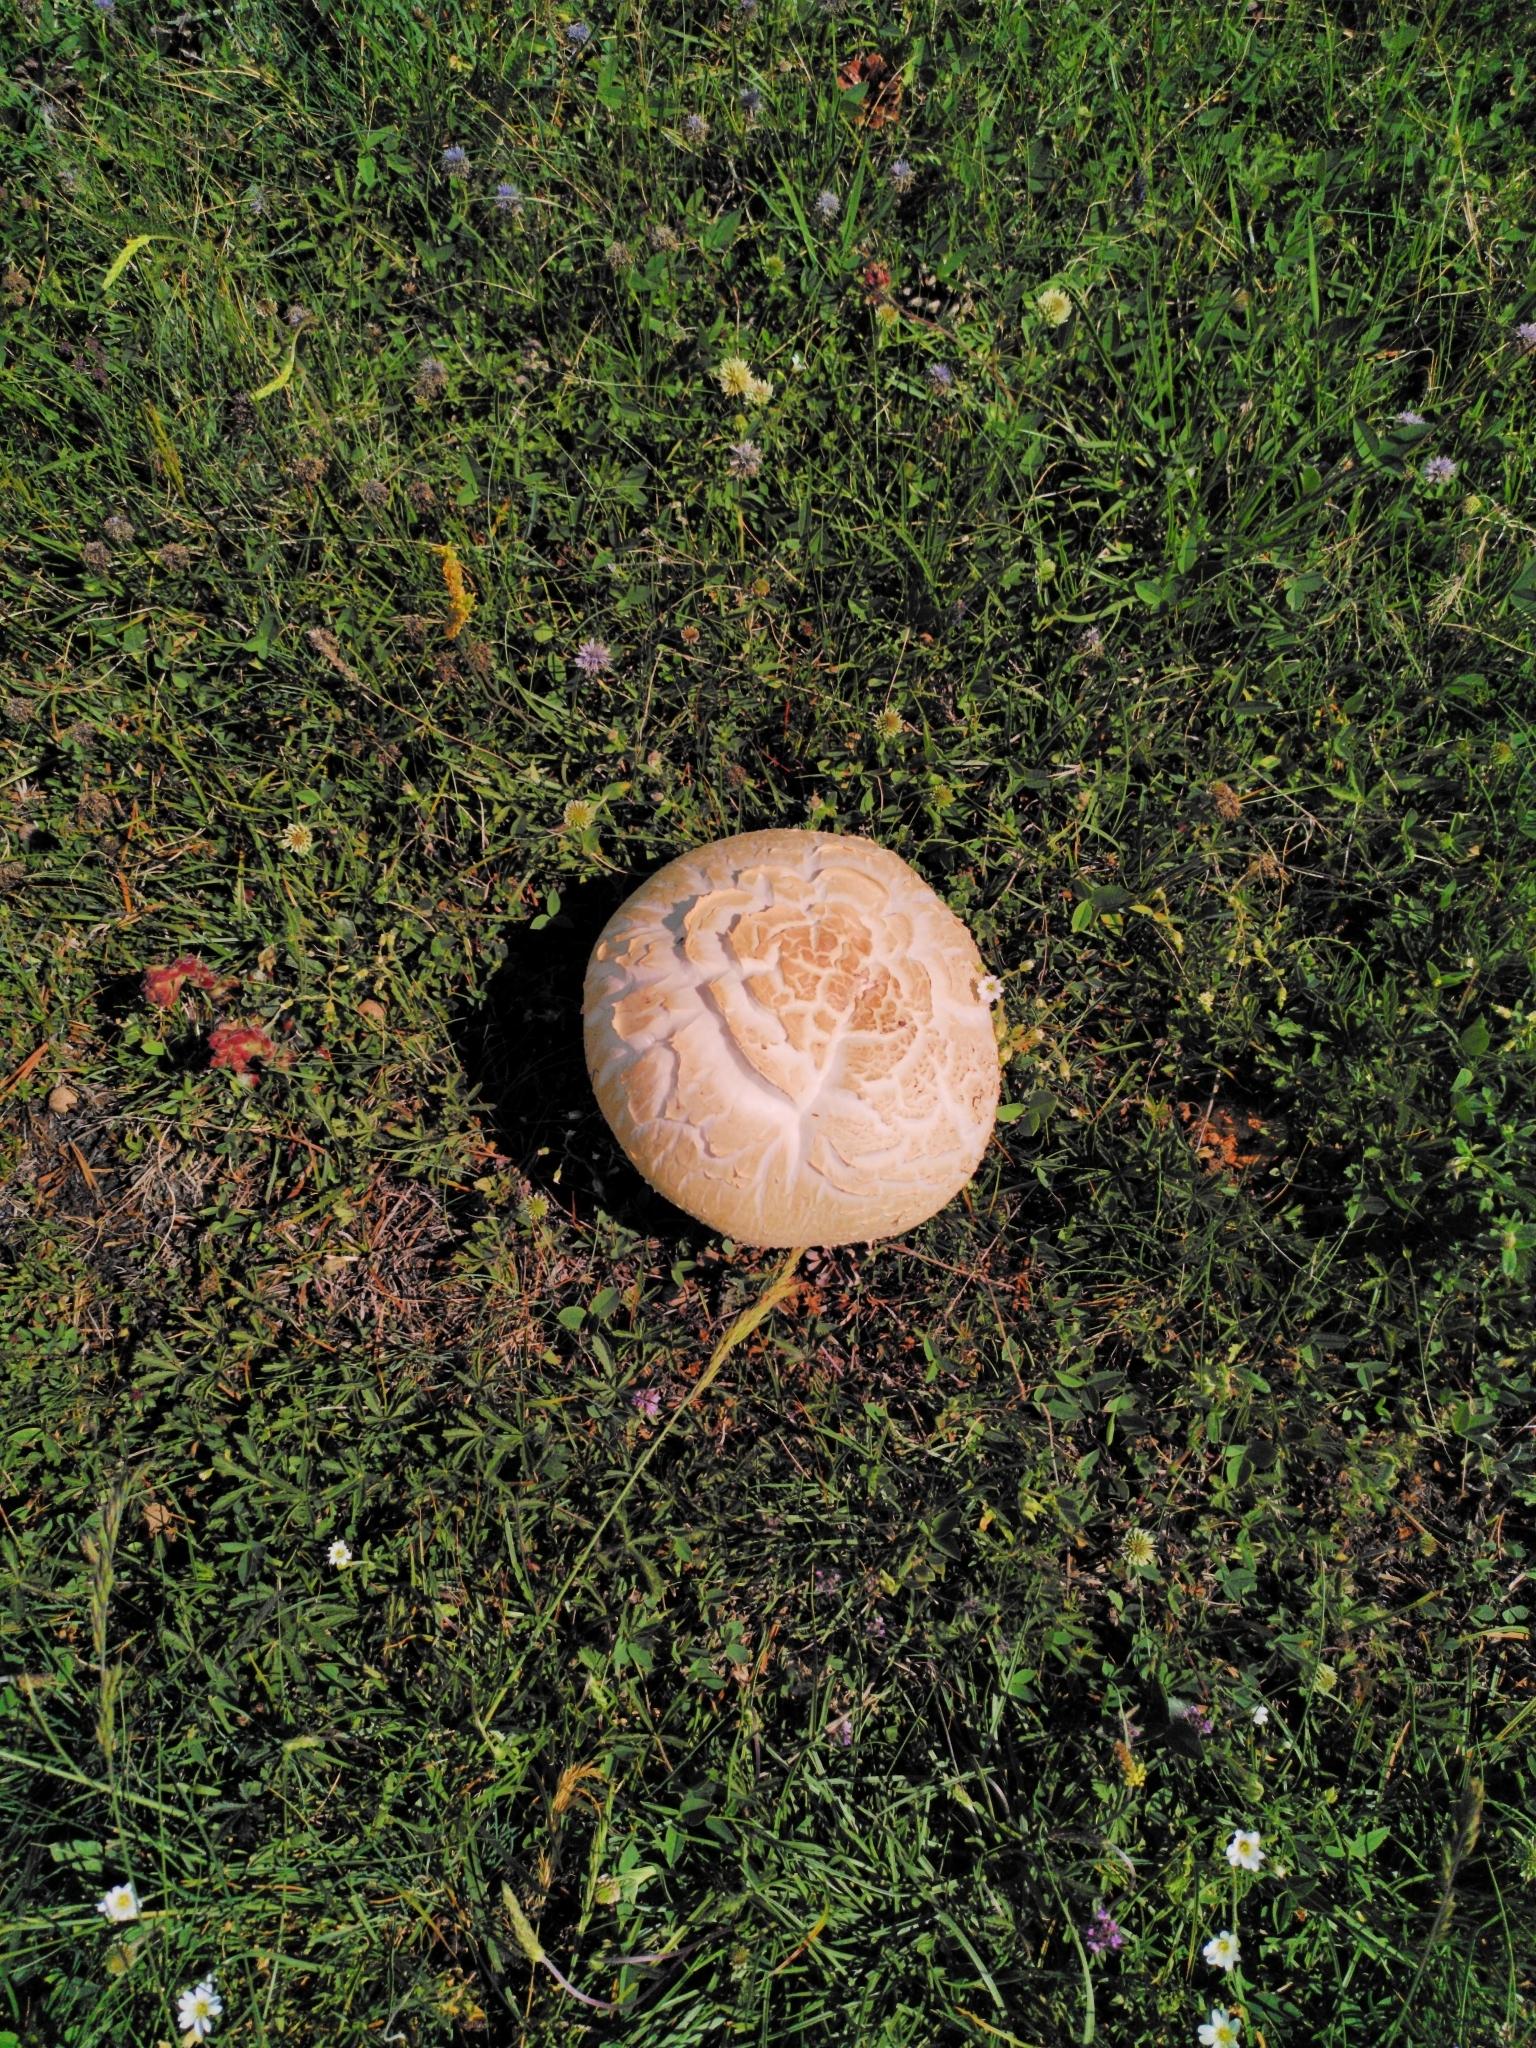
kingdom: Fungi
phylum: Basidiomycota
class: Agaricomycetes
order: Agaricales
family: Agaricaceae
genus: Agaricus
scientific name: Agaricus campestris
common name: Field mushroom
